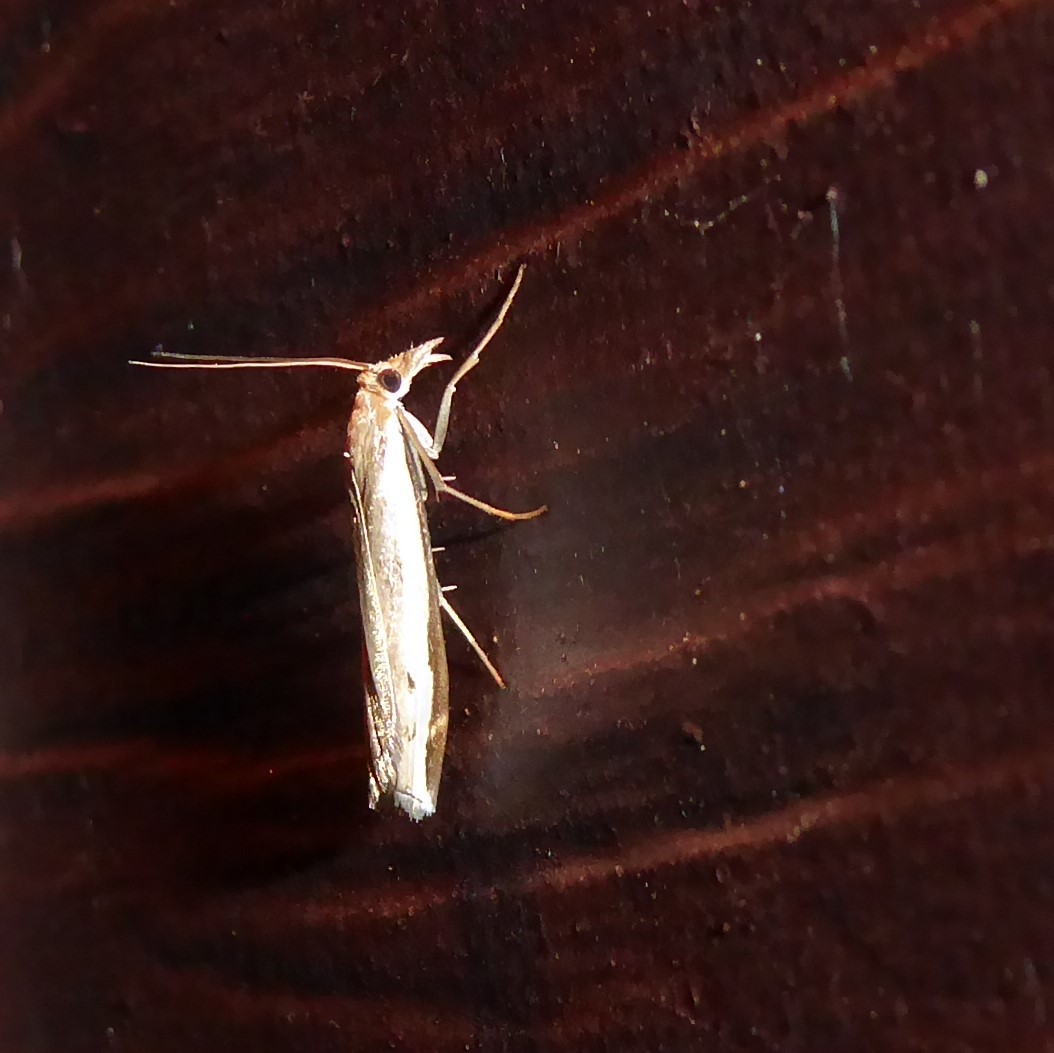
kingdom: Animalia
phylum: Arthropoda
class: Insecta
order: Lepidoptera
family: Crambidae
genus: Orocrambus
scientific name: Orocrambus flexuosellus
